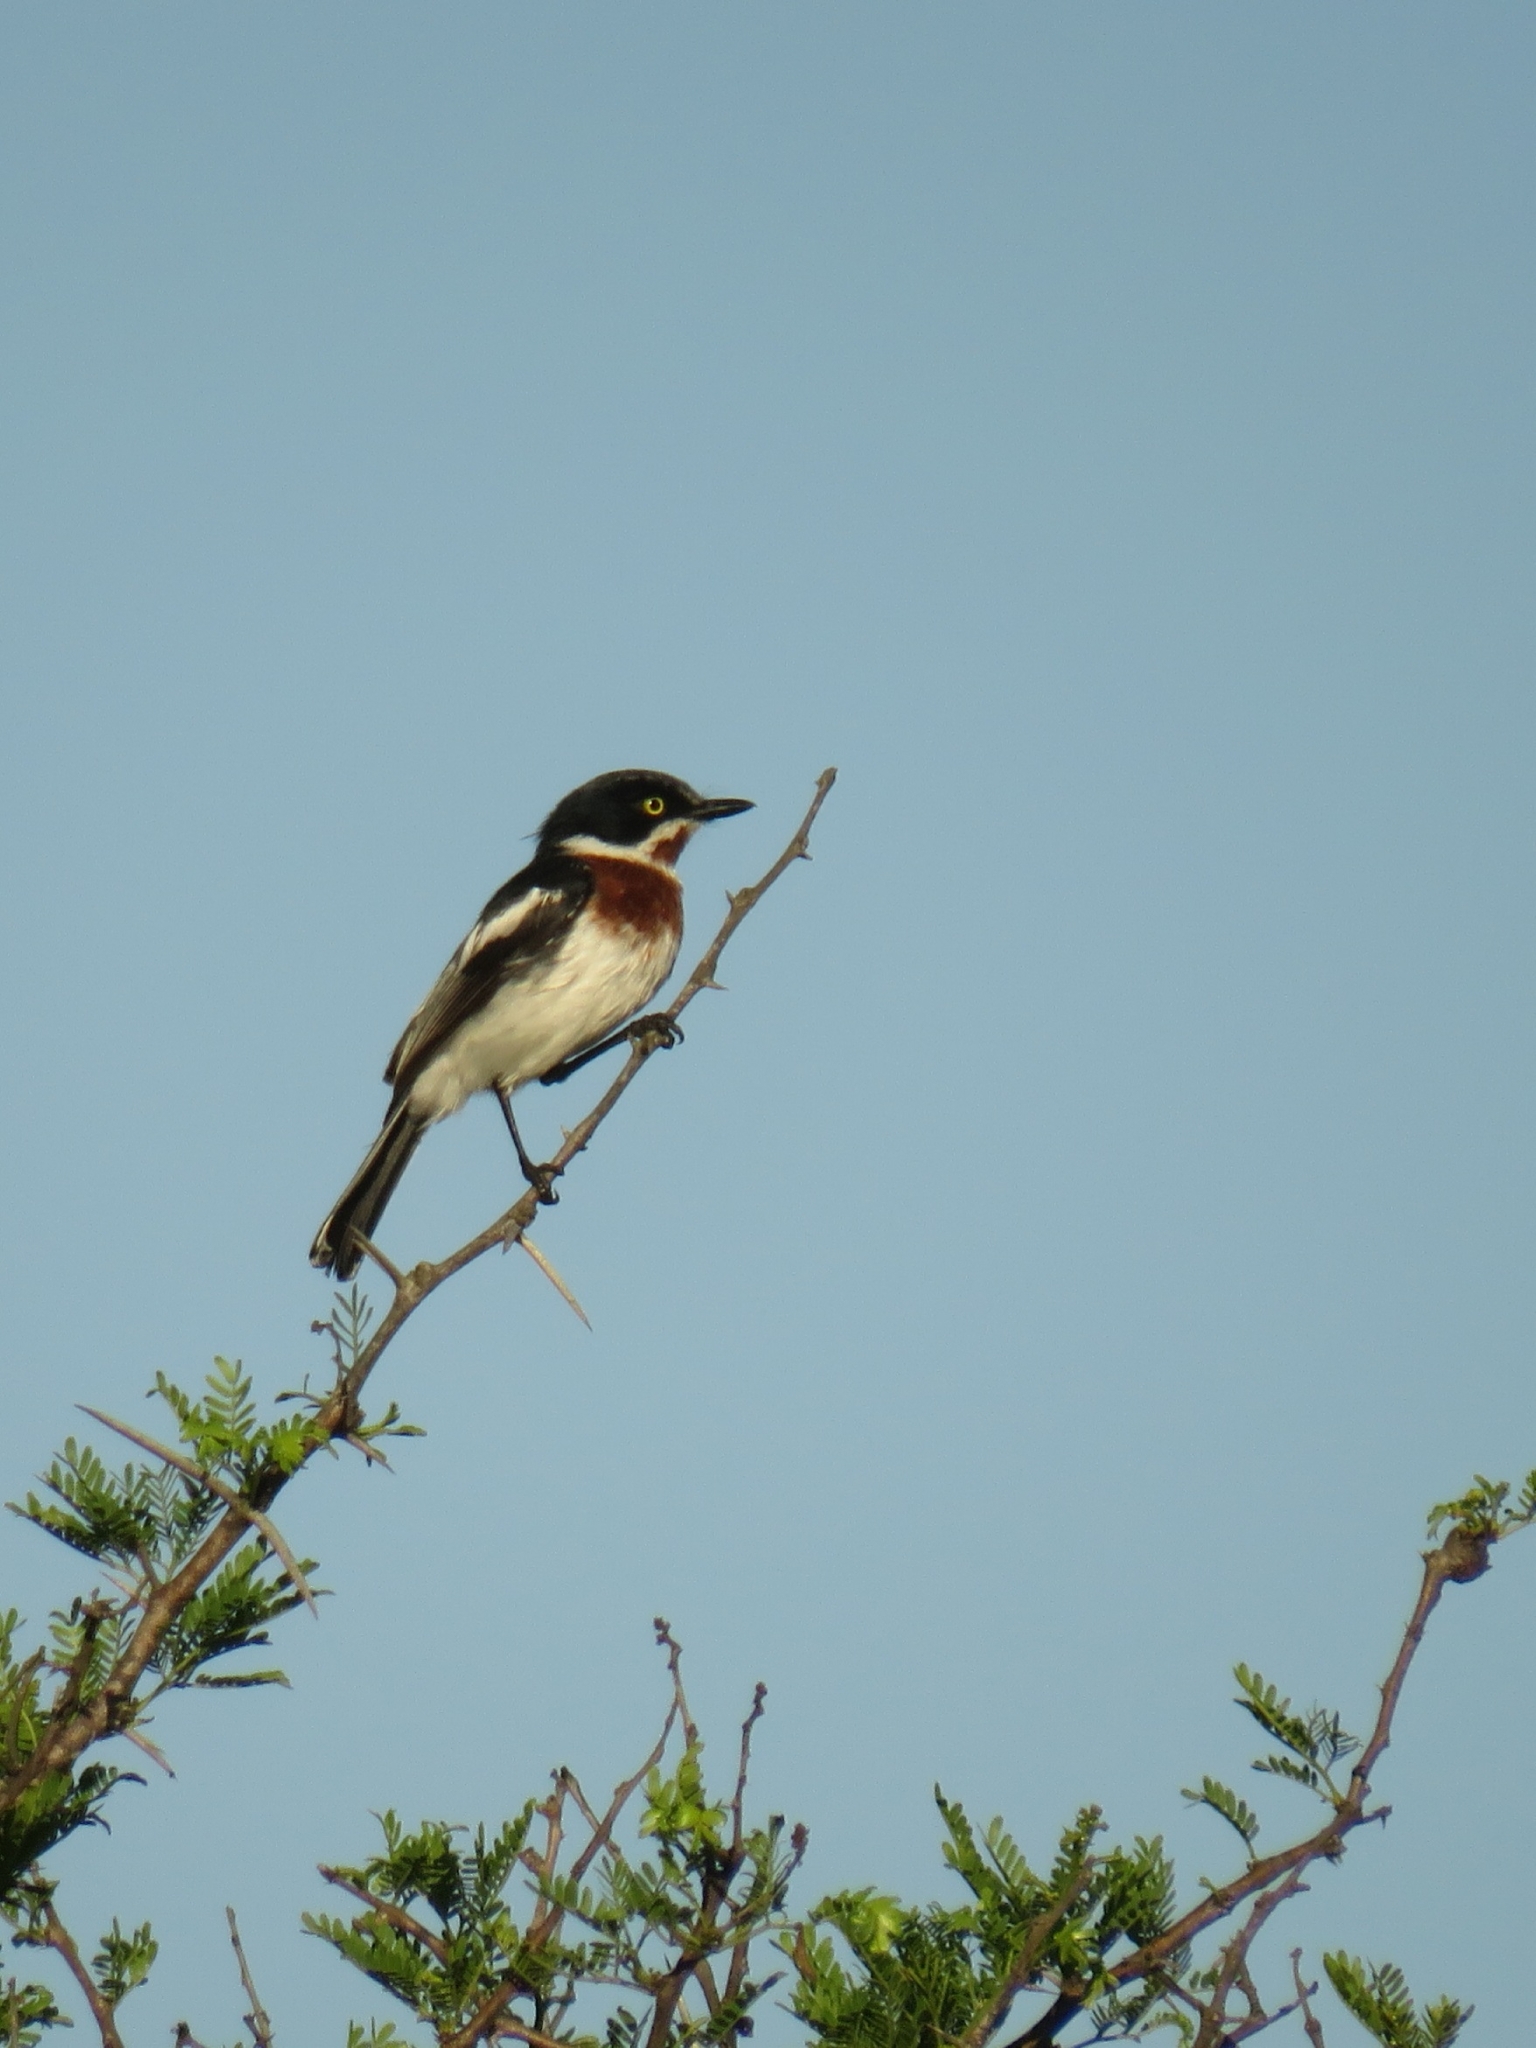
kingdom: Animalia
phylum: Chordata
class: Aves
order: Passeriformes
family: Platysteiridae
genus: Batis
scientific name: Batis molitor
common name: Chinspot batis
